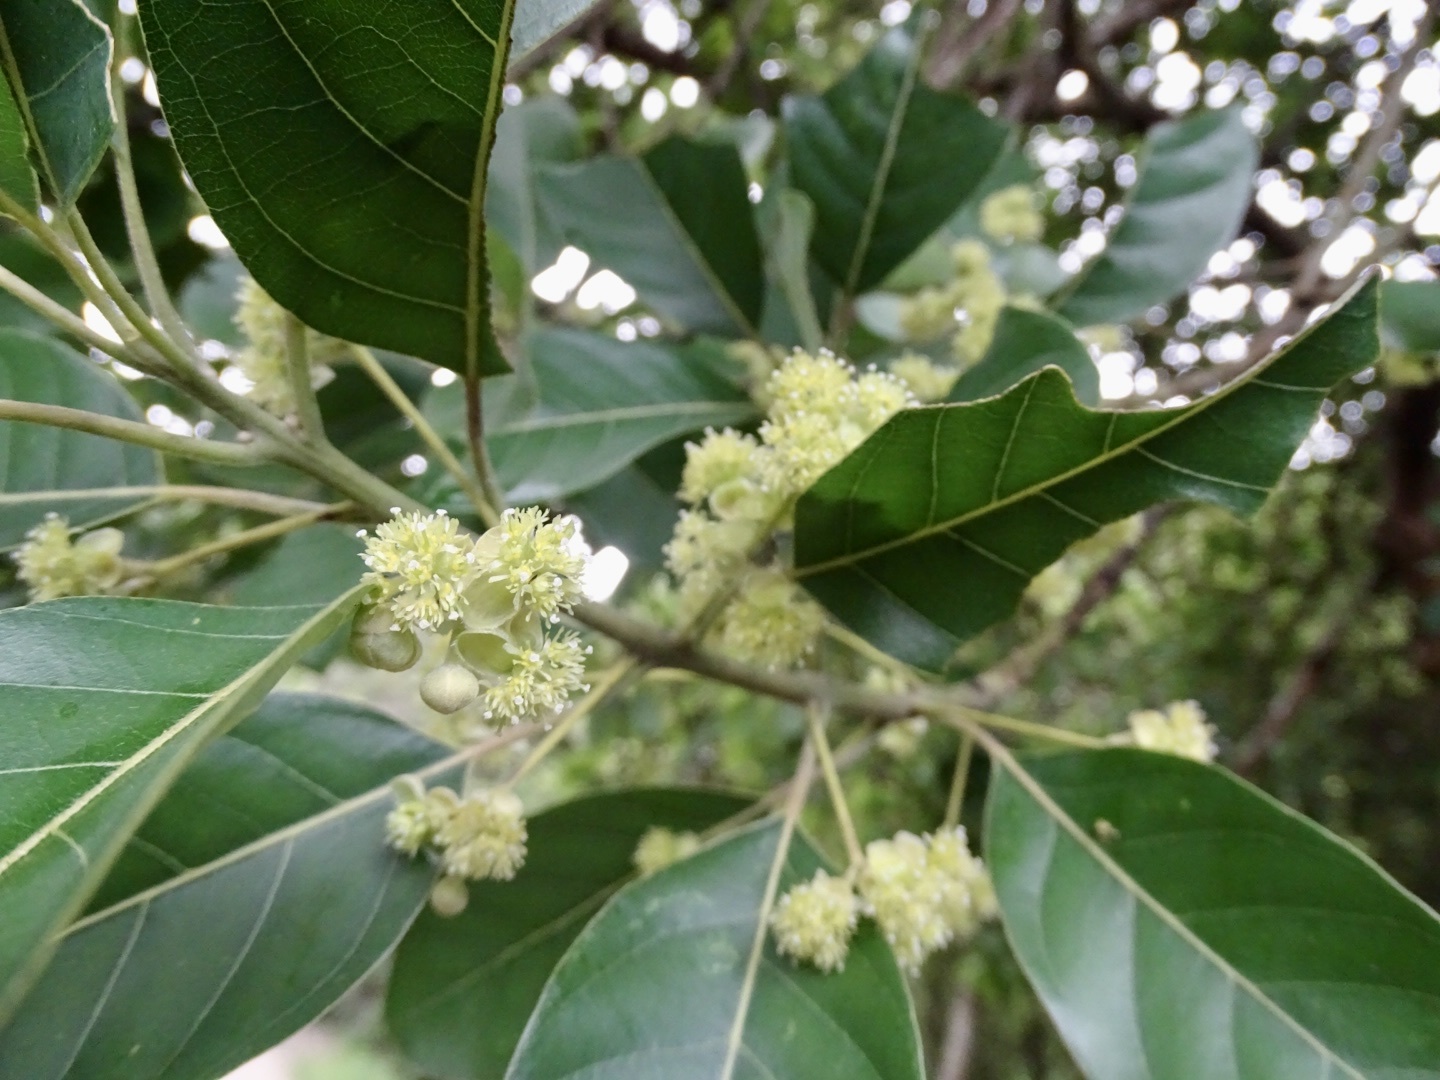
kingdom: Plantae
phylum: Tracheophyta
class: Magnoliopsida
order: Laurales
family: Lauraceae
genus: Litsea
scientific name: Litsea glutinosa
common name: Indian-laurel
